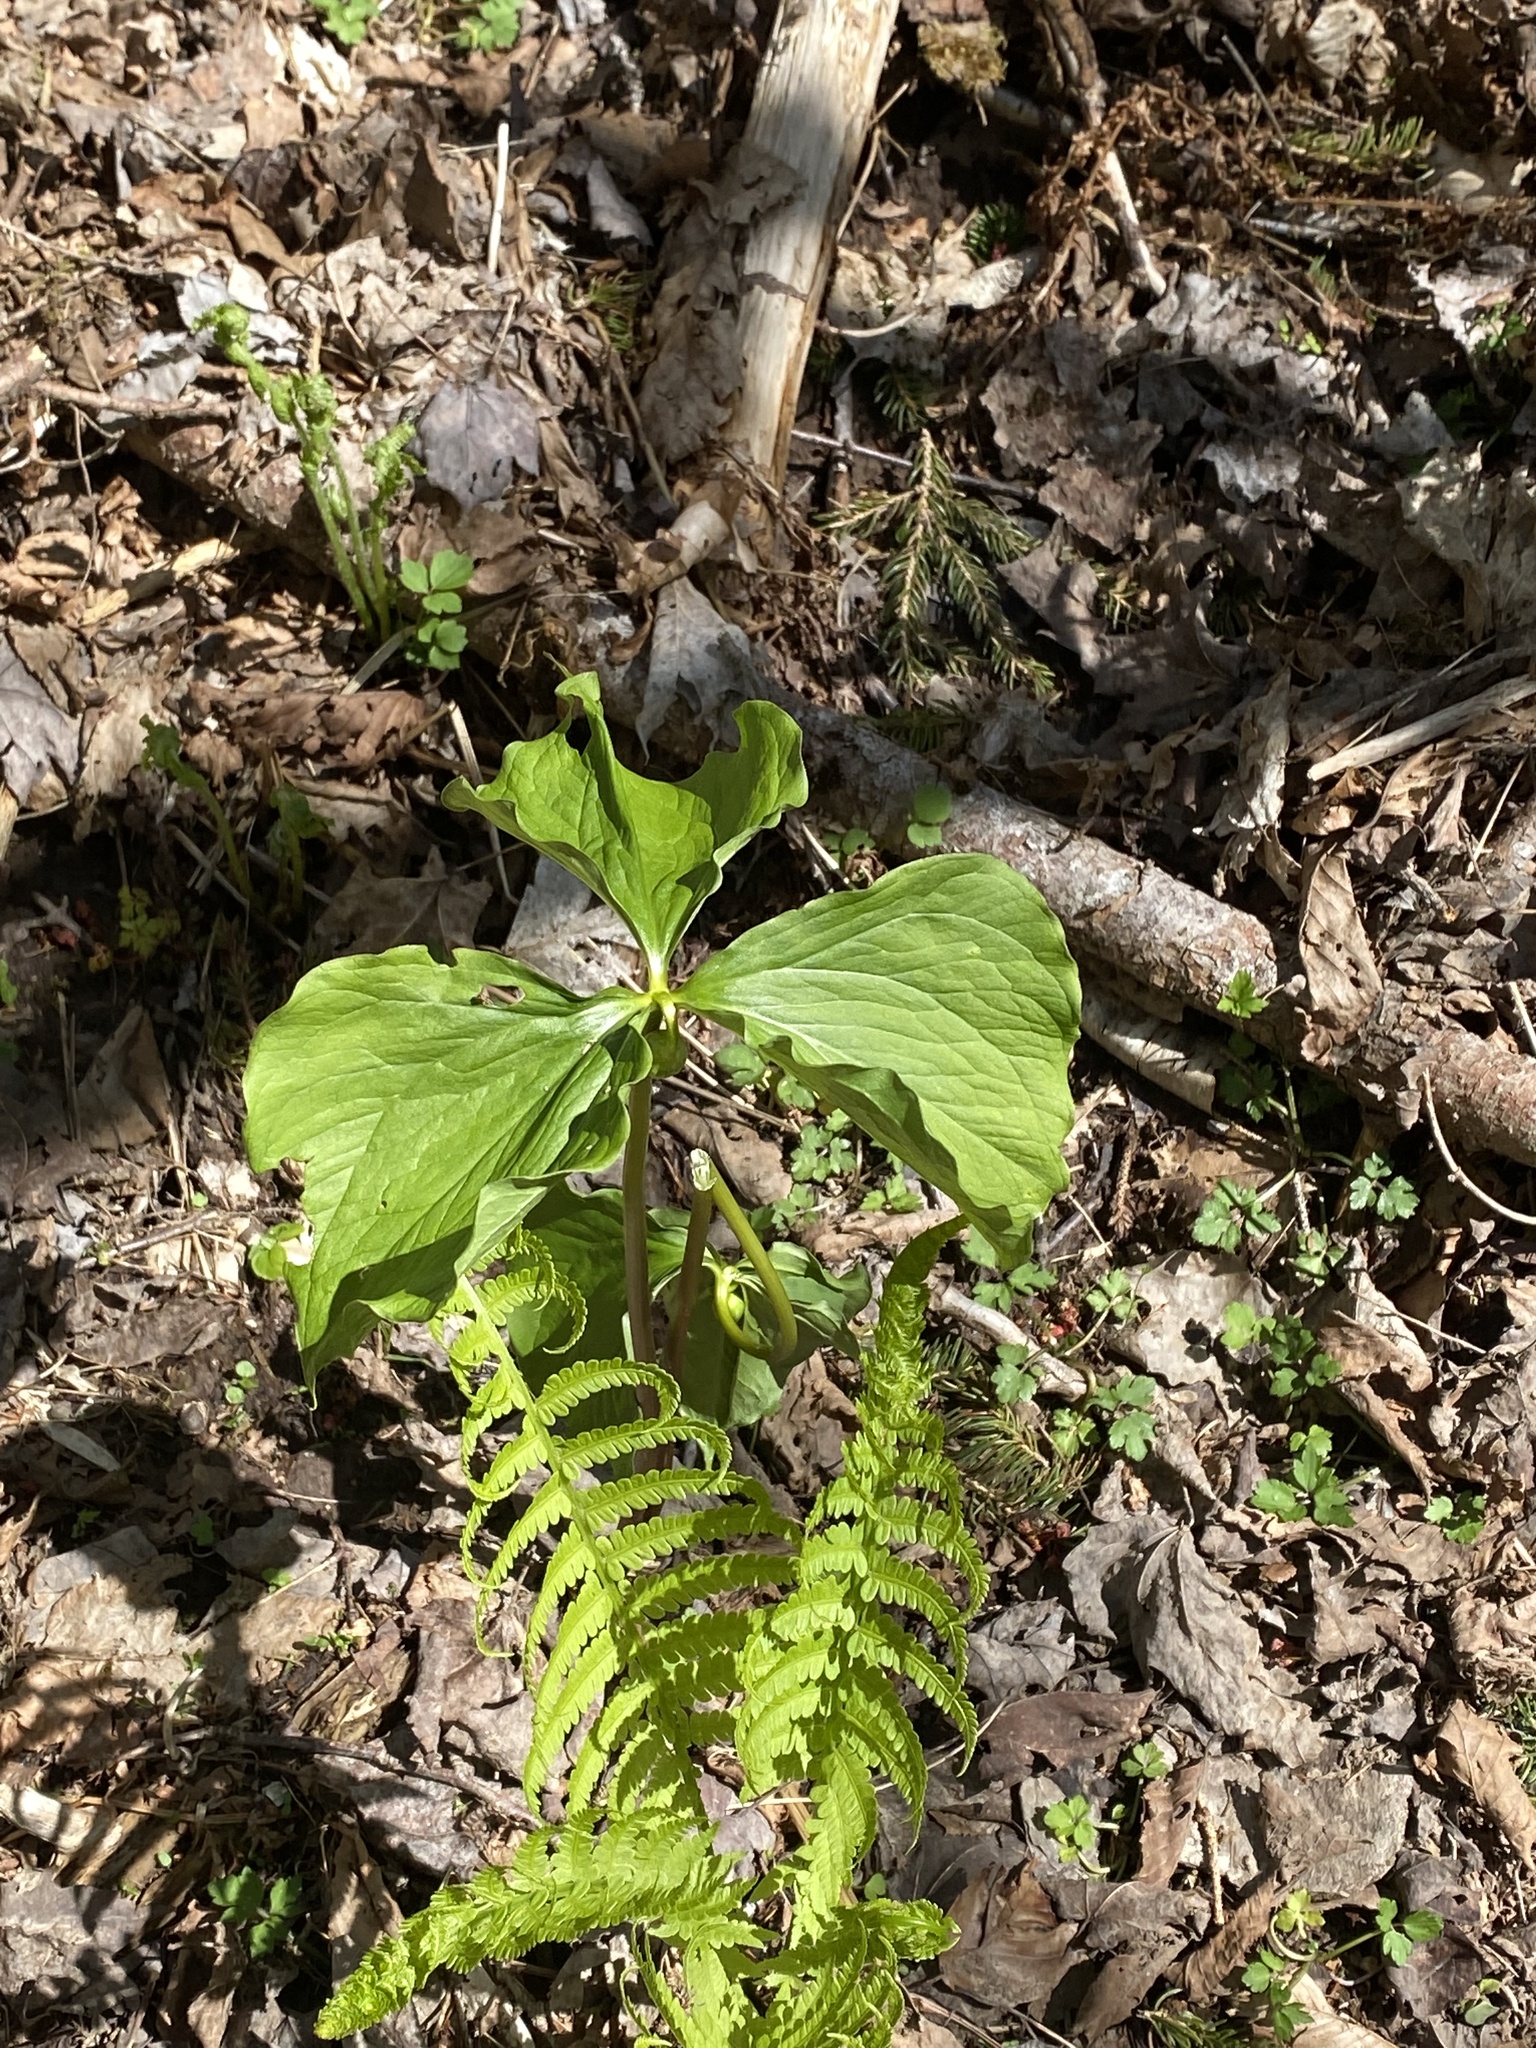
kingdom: Plantae
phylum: Tracheophyta
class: Liliopsida
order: Liliales
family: Melanthiaceae
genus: Trillium
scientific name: Trillium cernuum
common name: Nodding trillium
